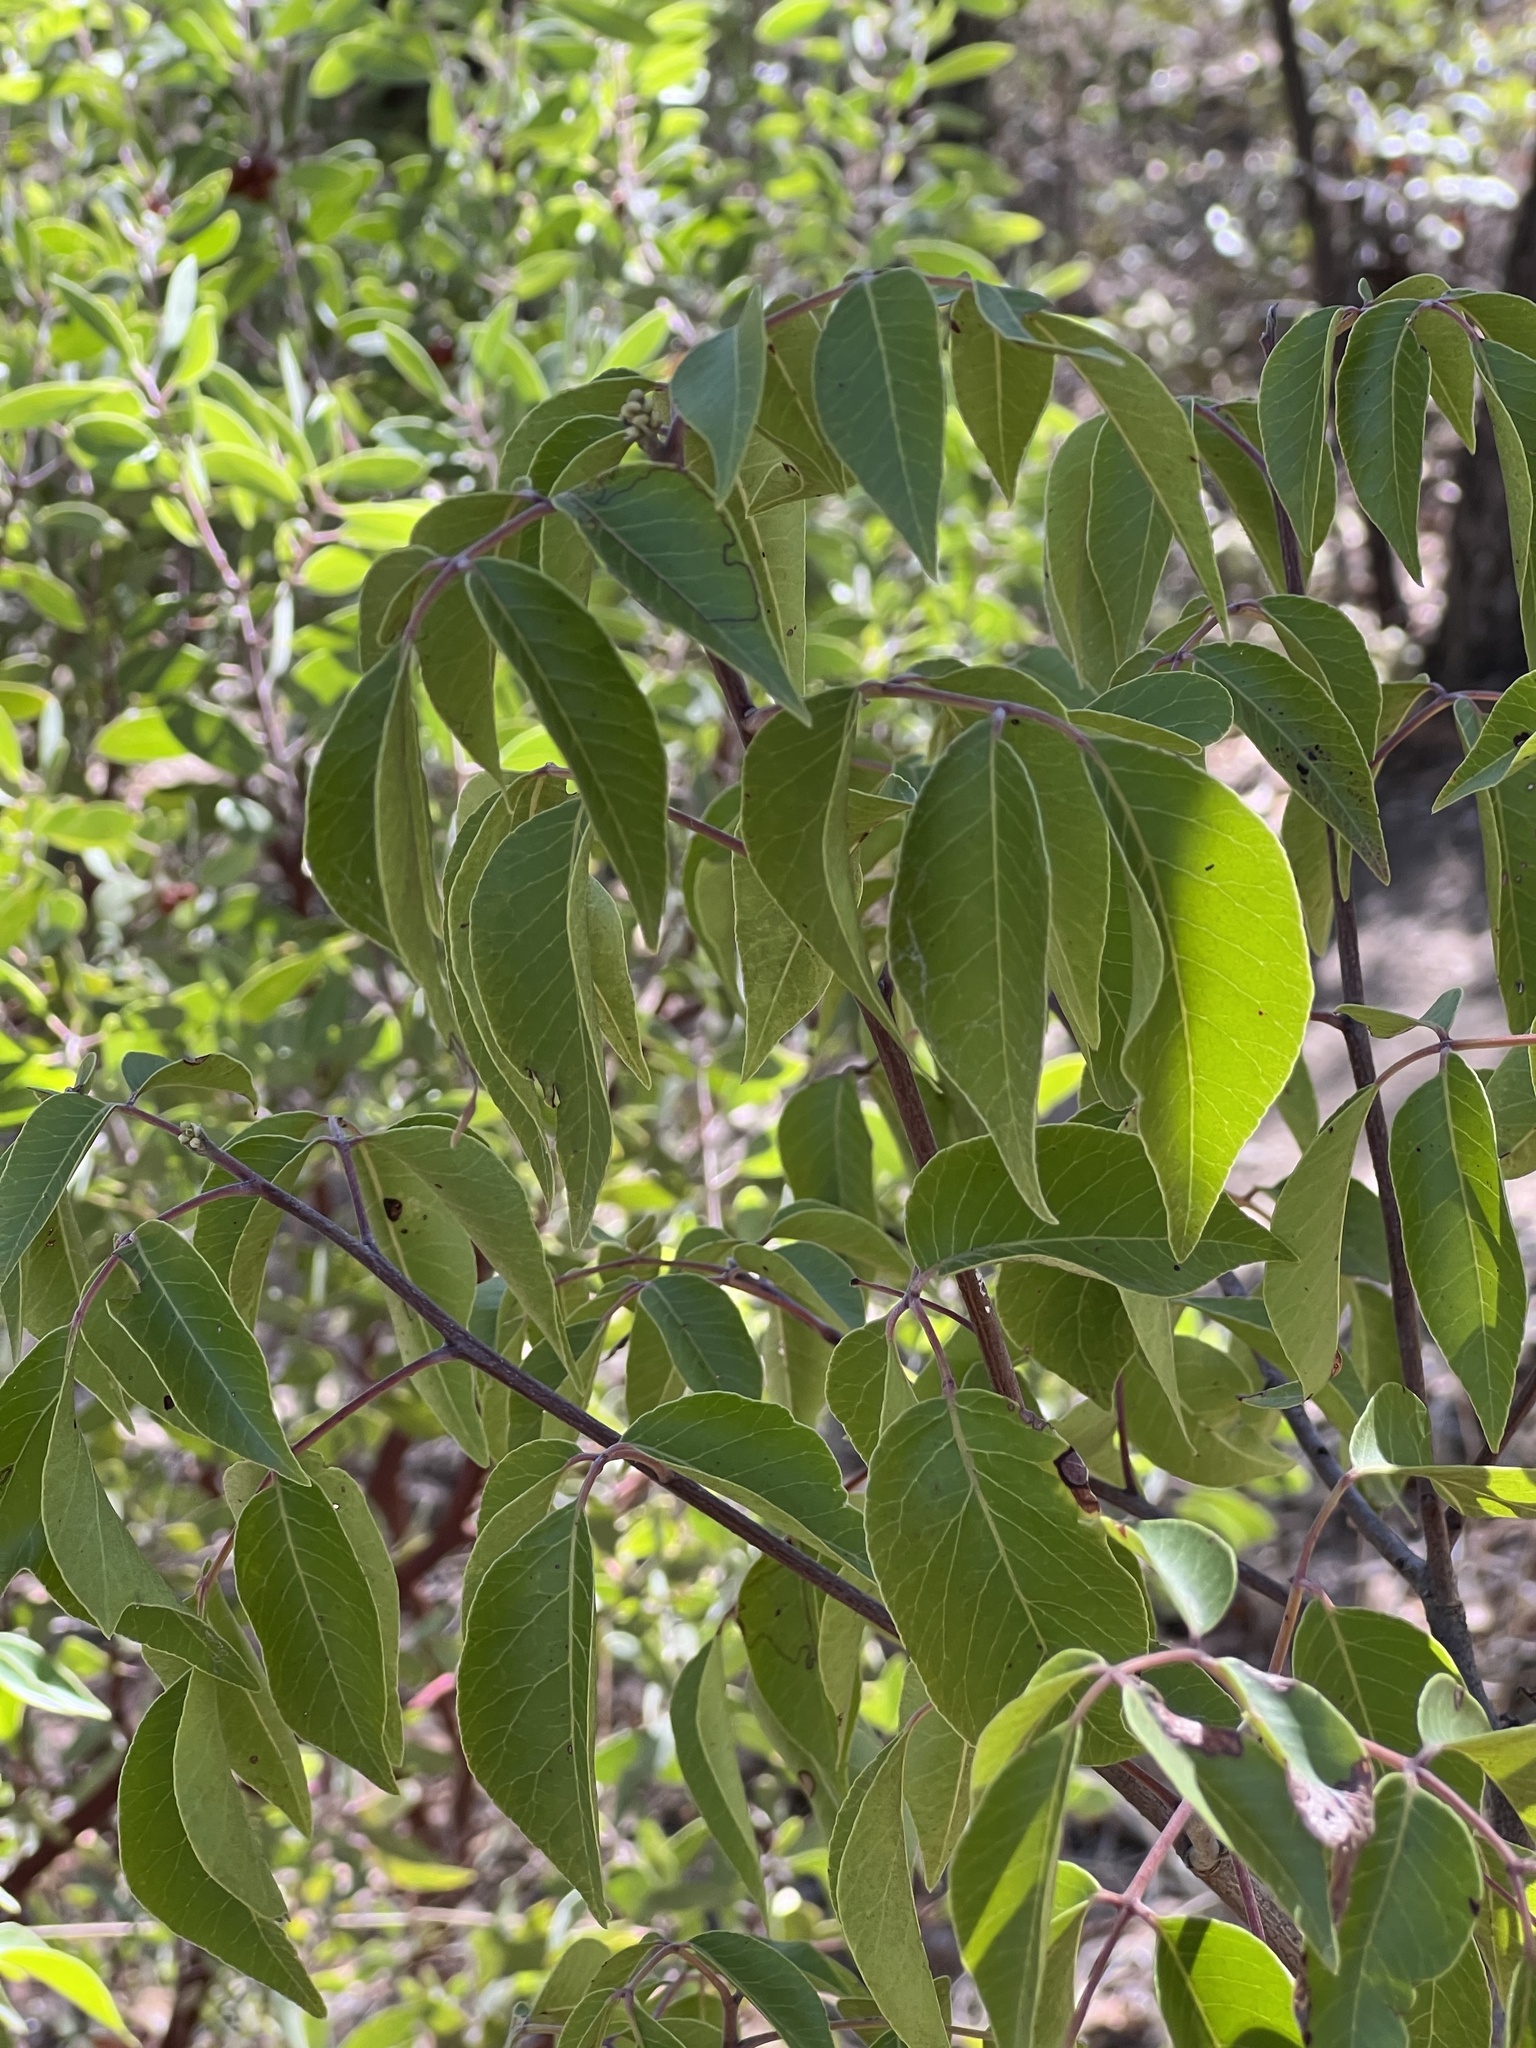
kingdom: Plantae
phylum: Tracheophyta
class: Magnoliopsida
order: Sapindales
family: Anacardiaceae
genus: Rhus
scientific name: Rhus virens
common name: Evergreen sumac
